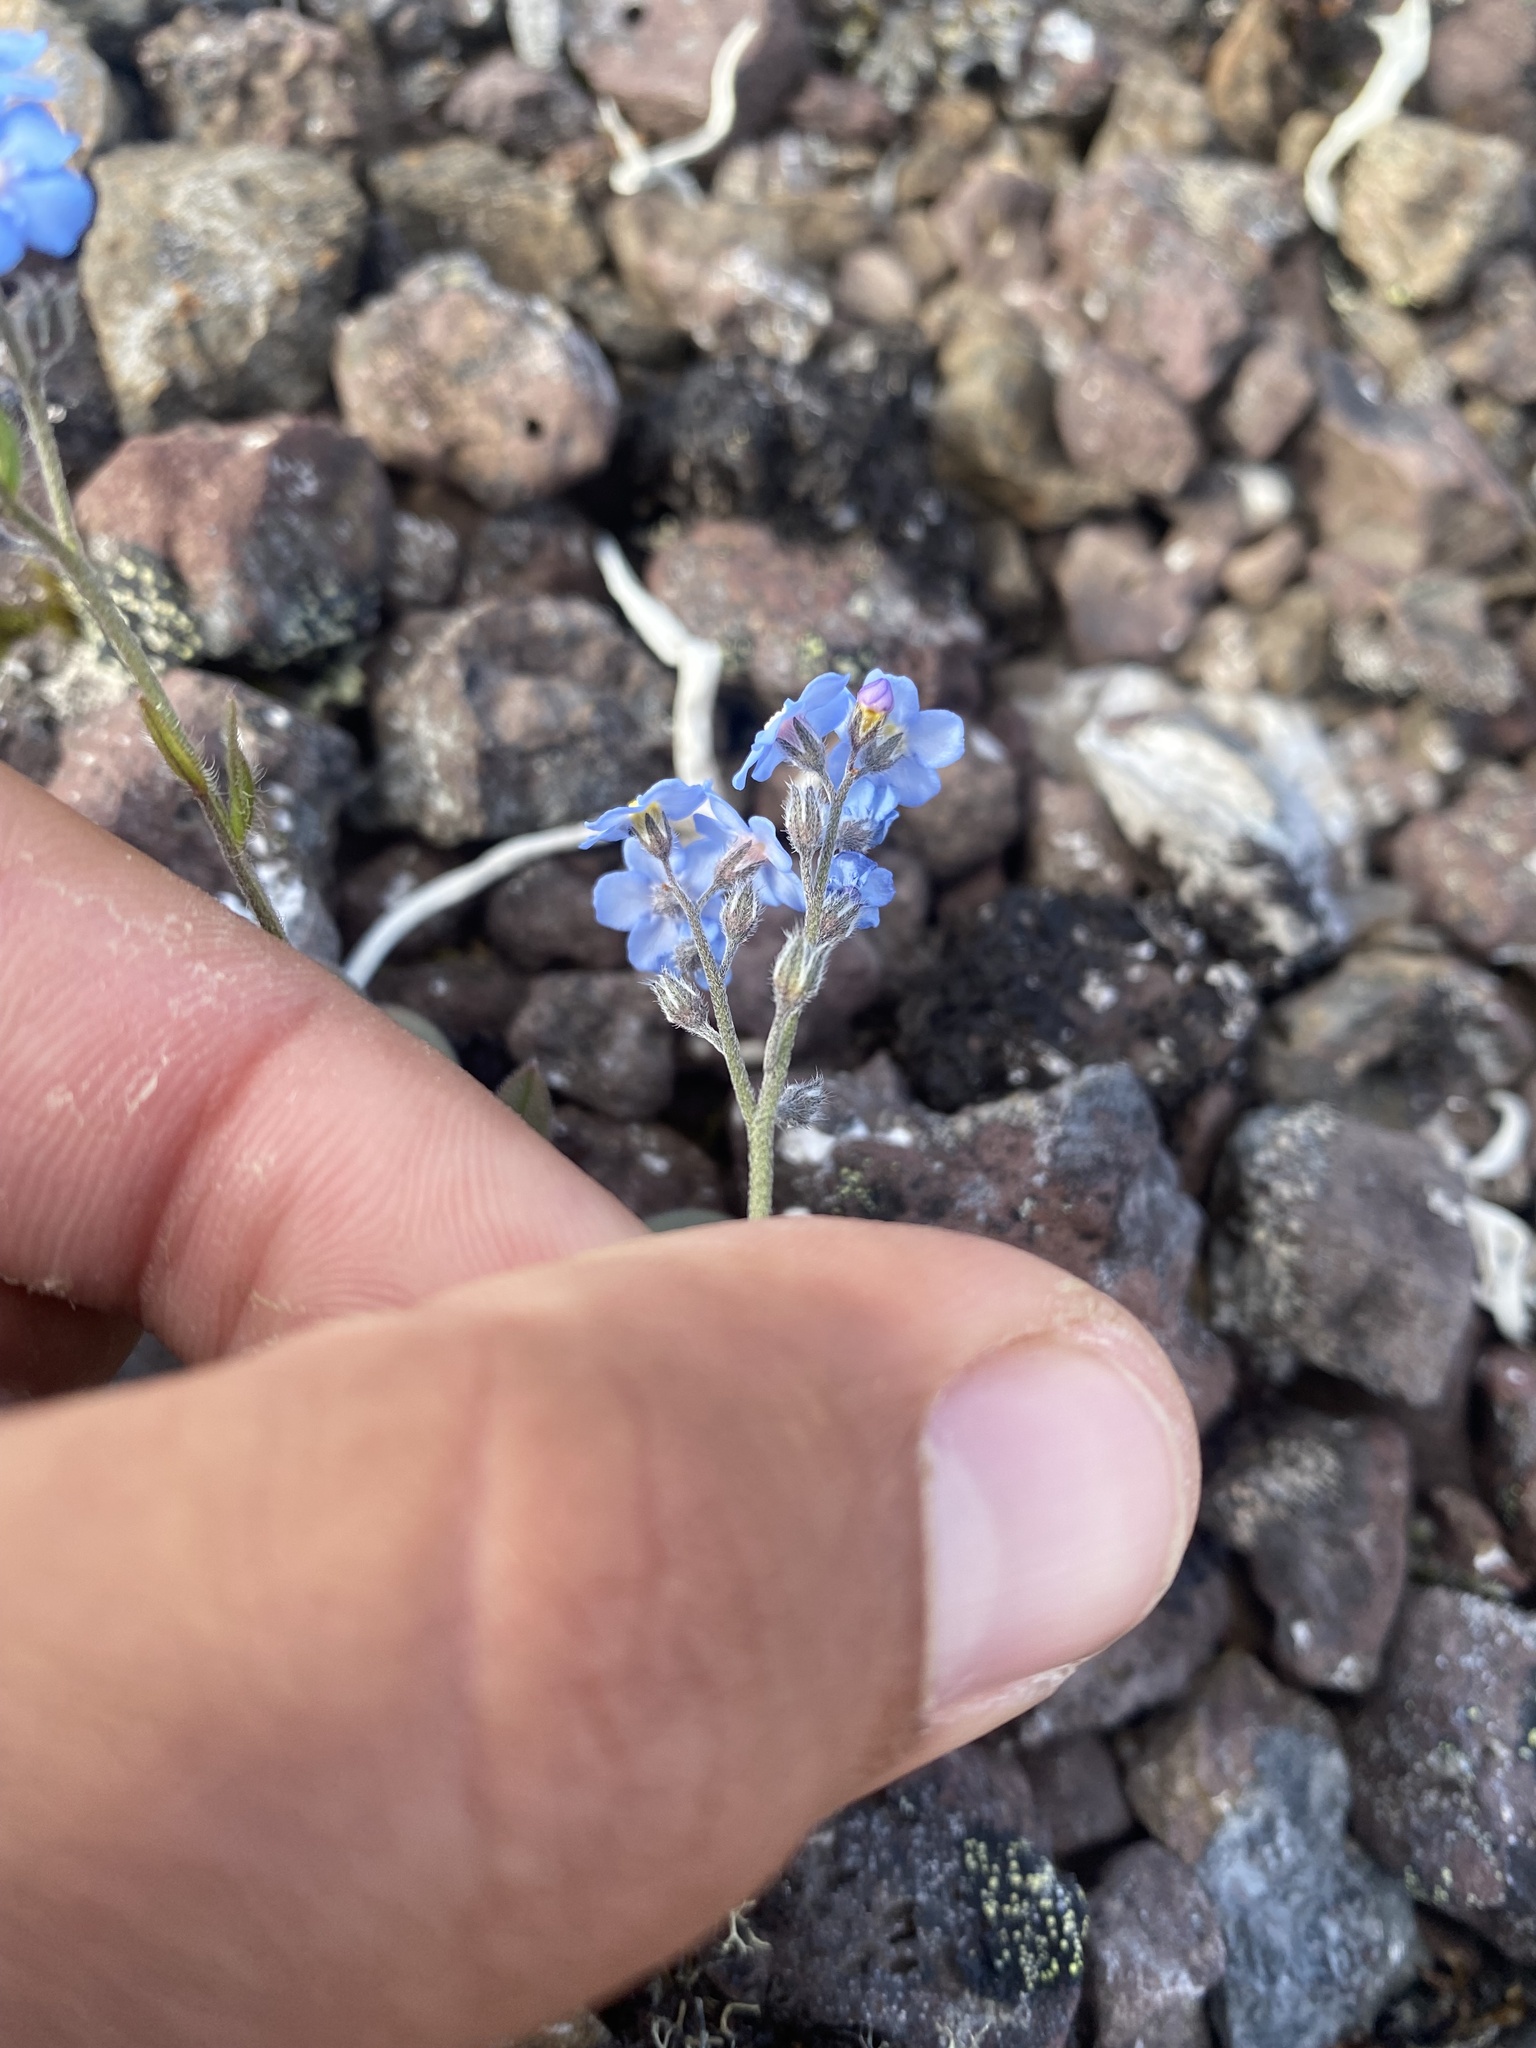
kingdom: Plantae
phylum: Tracheophyta
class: Magnoliopsida
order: Boraginales
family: Boraginaceae
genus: Myosotis
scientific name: Myosotis asiatica
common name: Asian forget-me-not
